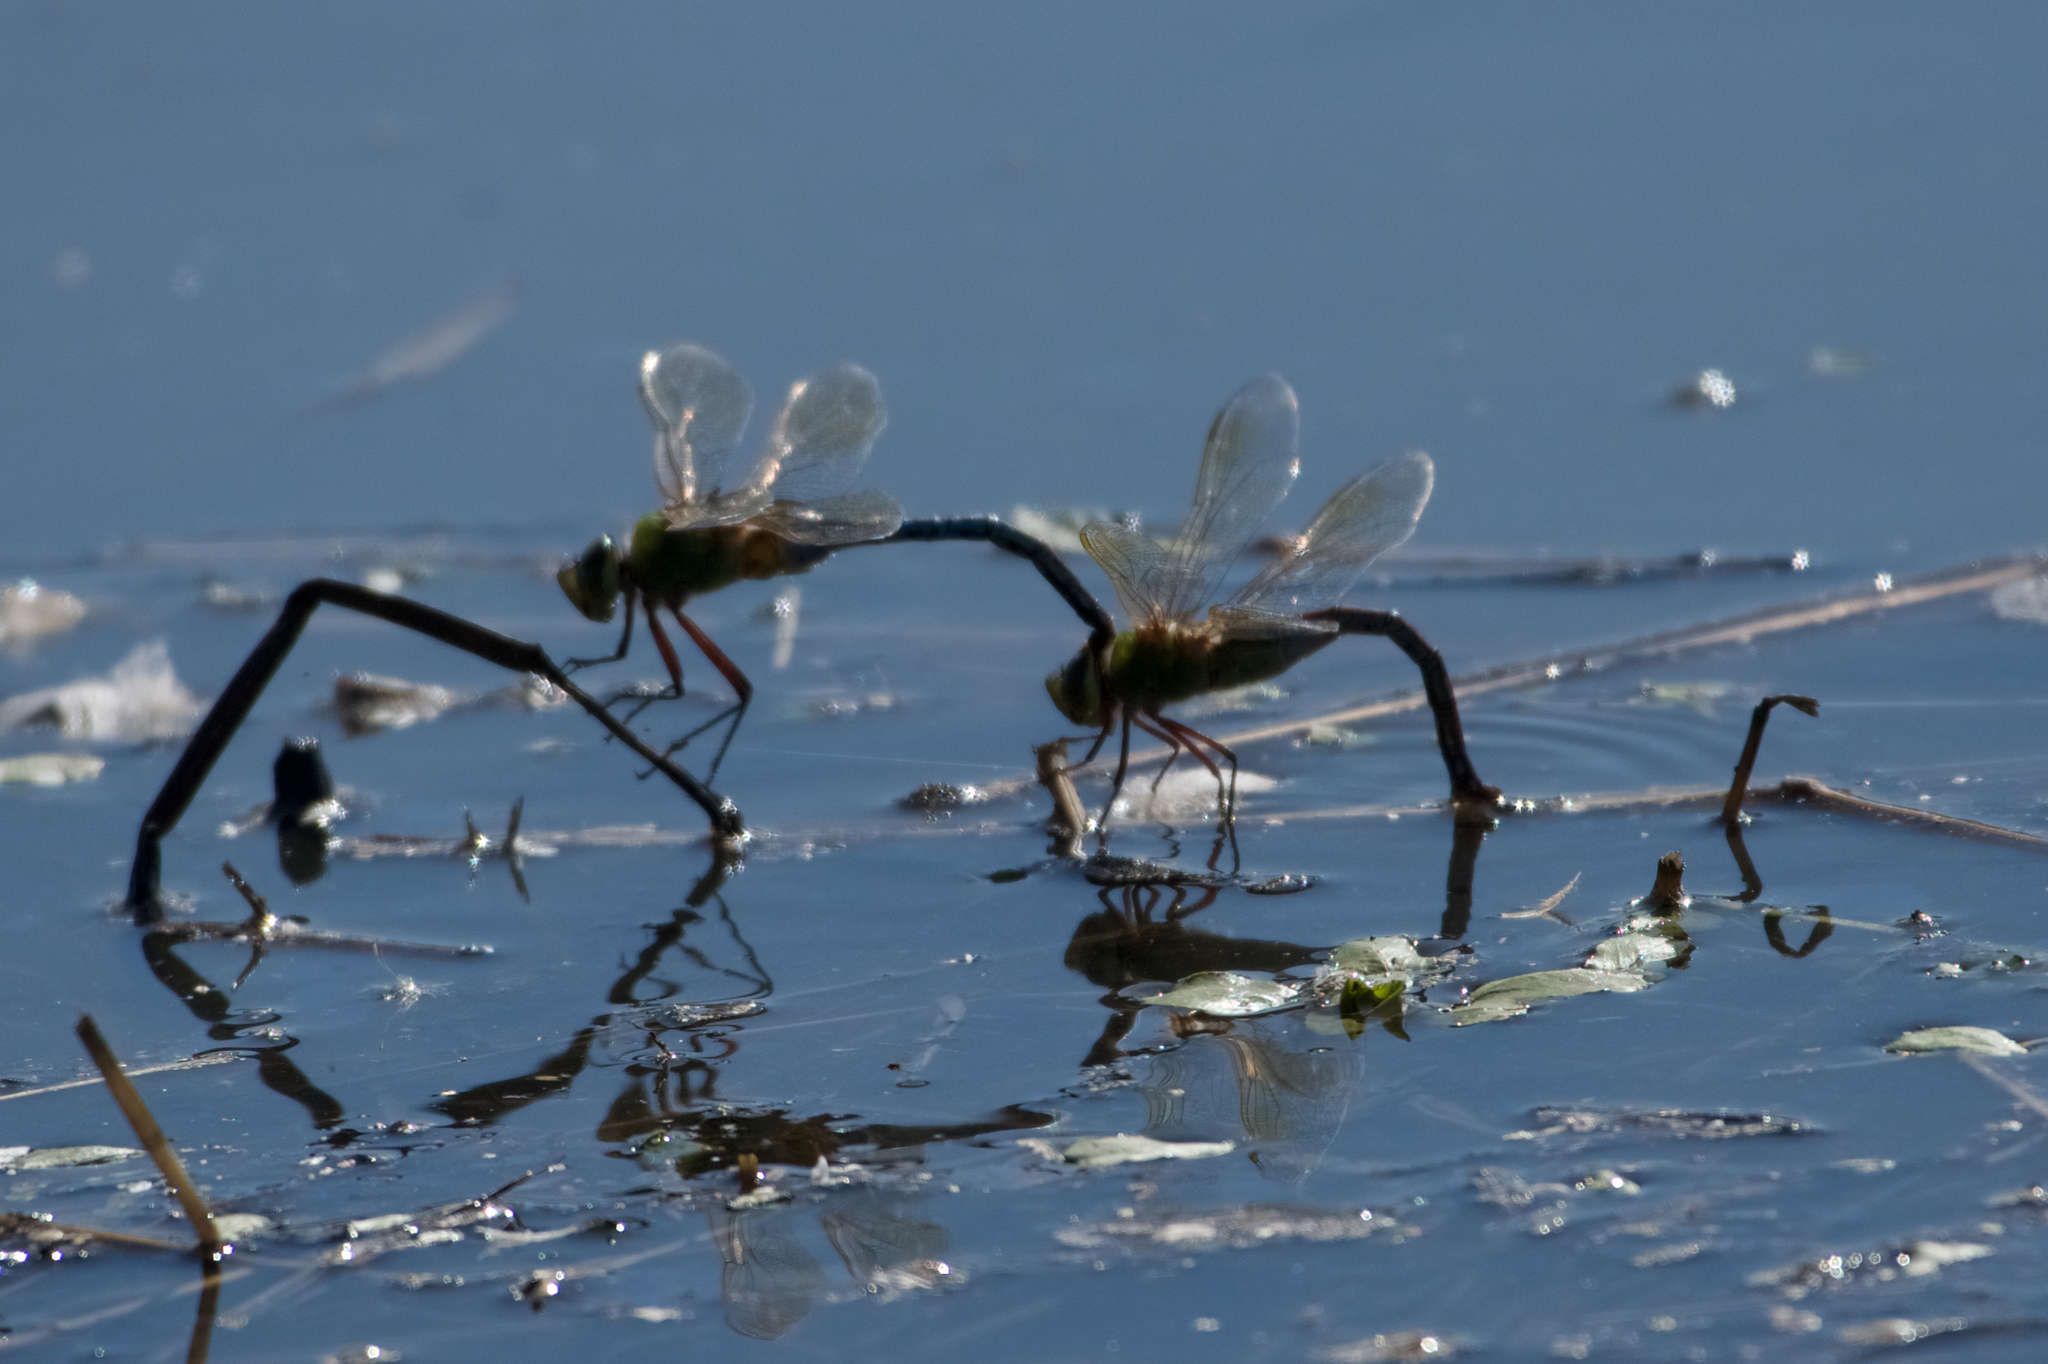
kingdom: Animalia
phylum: Arthropoda
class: Insecta
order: Odonata
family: Aeshnidae
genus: Anax
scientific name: Anax junius
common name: Common green darner
